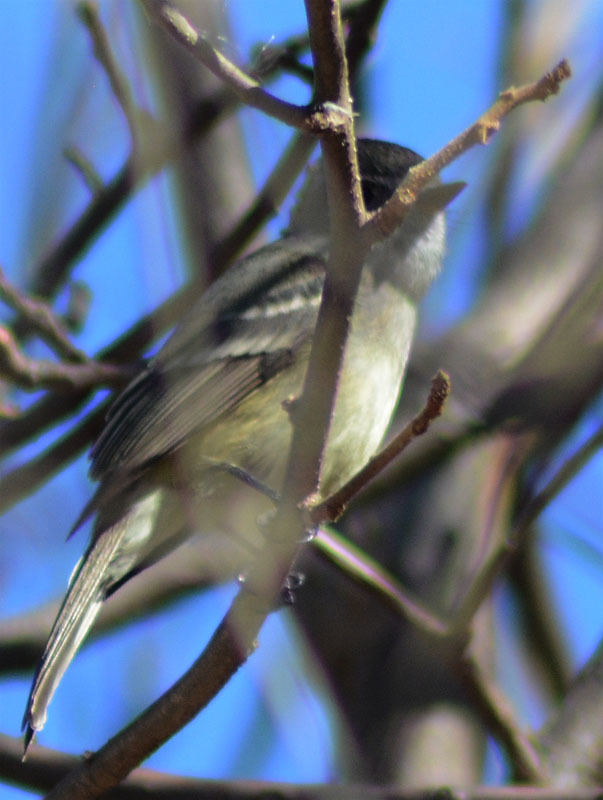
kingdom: Animalia
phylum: Chordata
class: Aves
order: Passeriformes
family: Tyrannidae
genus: Empidonax
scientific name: Empidonax
